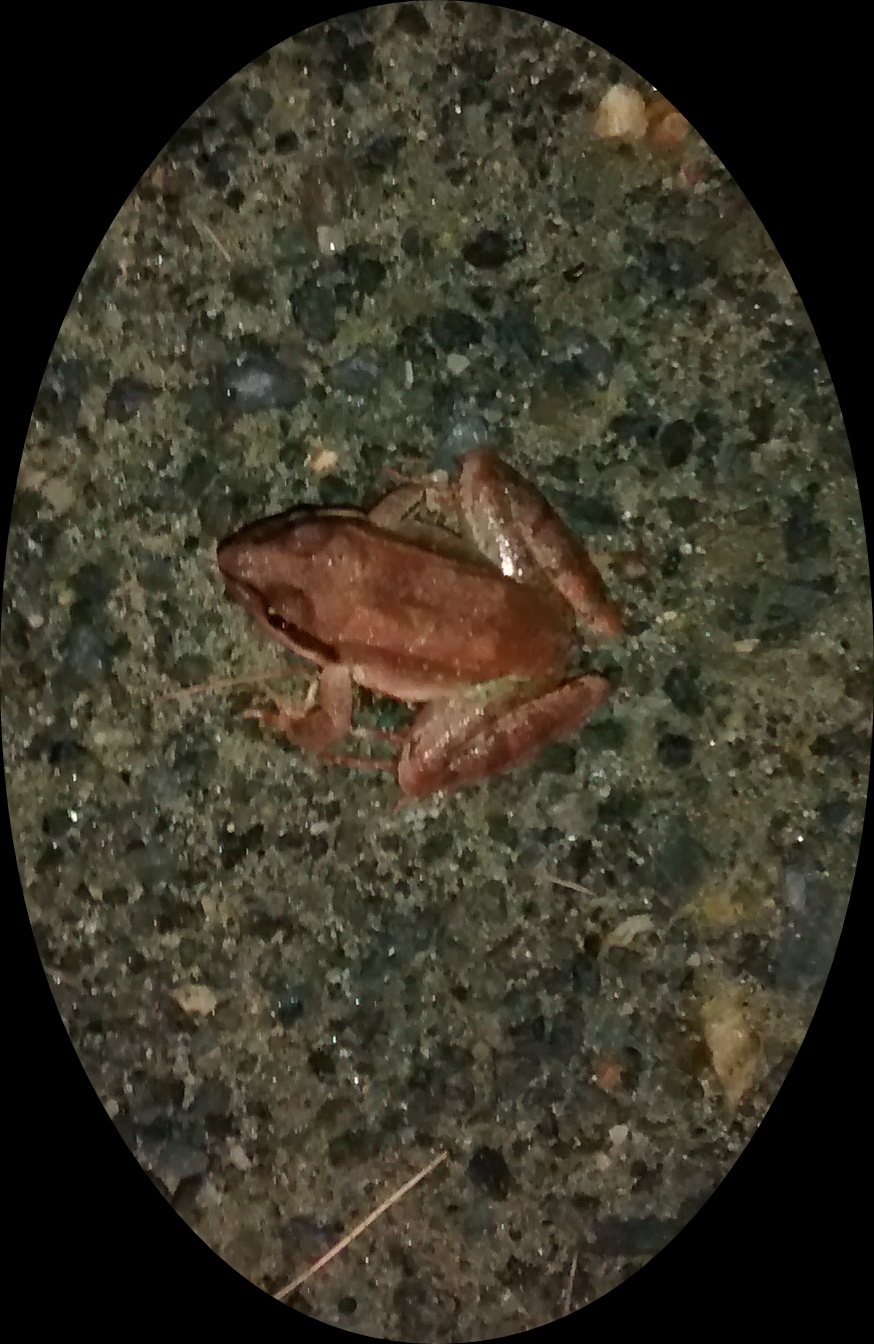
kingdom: Animalia
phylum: Chordata
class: Amphibia
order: Anura
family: Ranidae
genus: Lithobates
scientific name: Lithobates sylvaticus
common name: Wood frog
